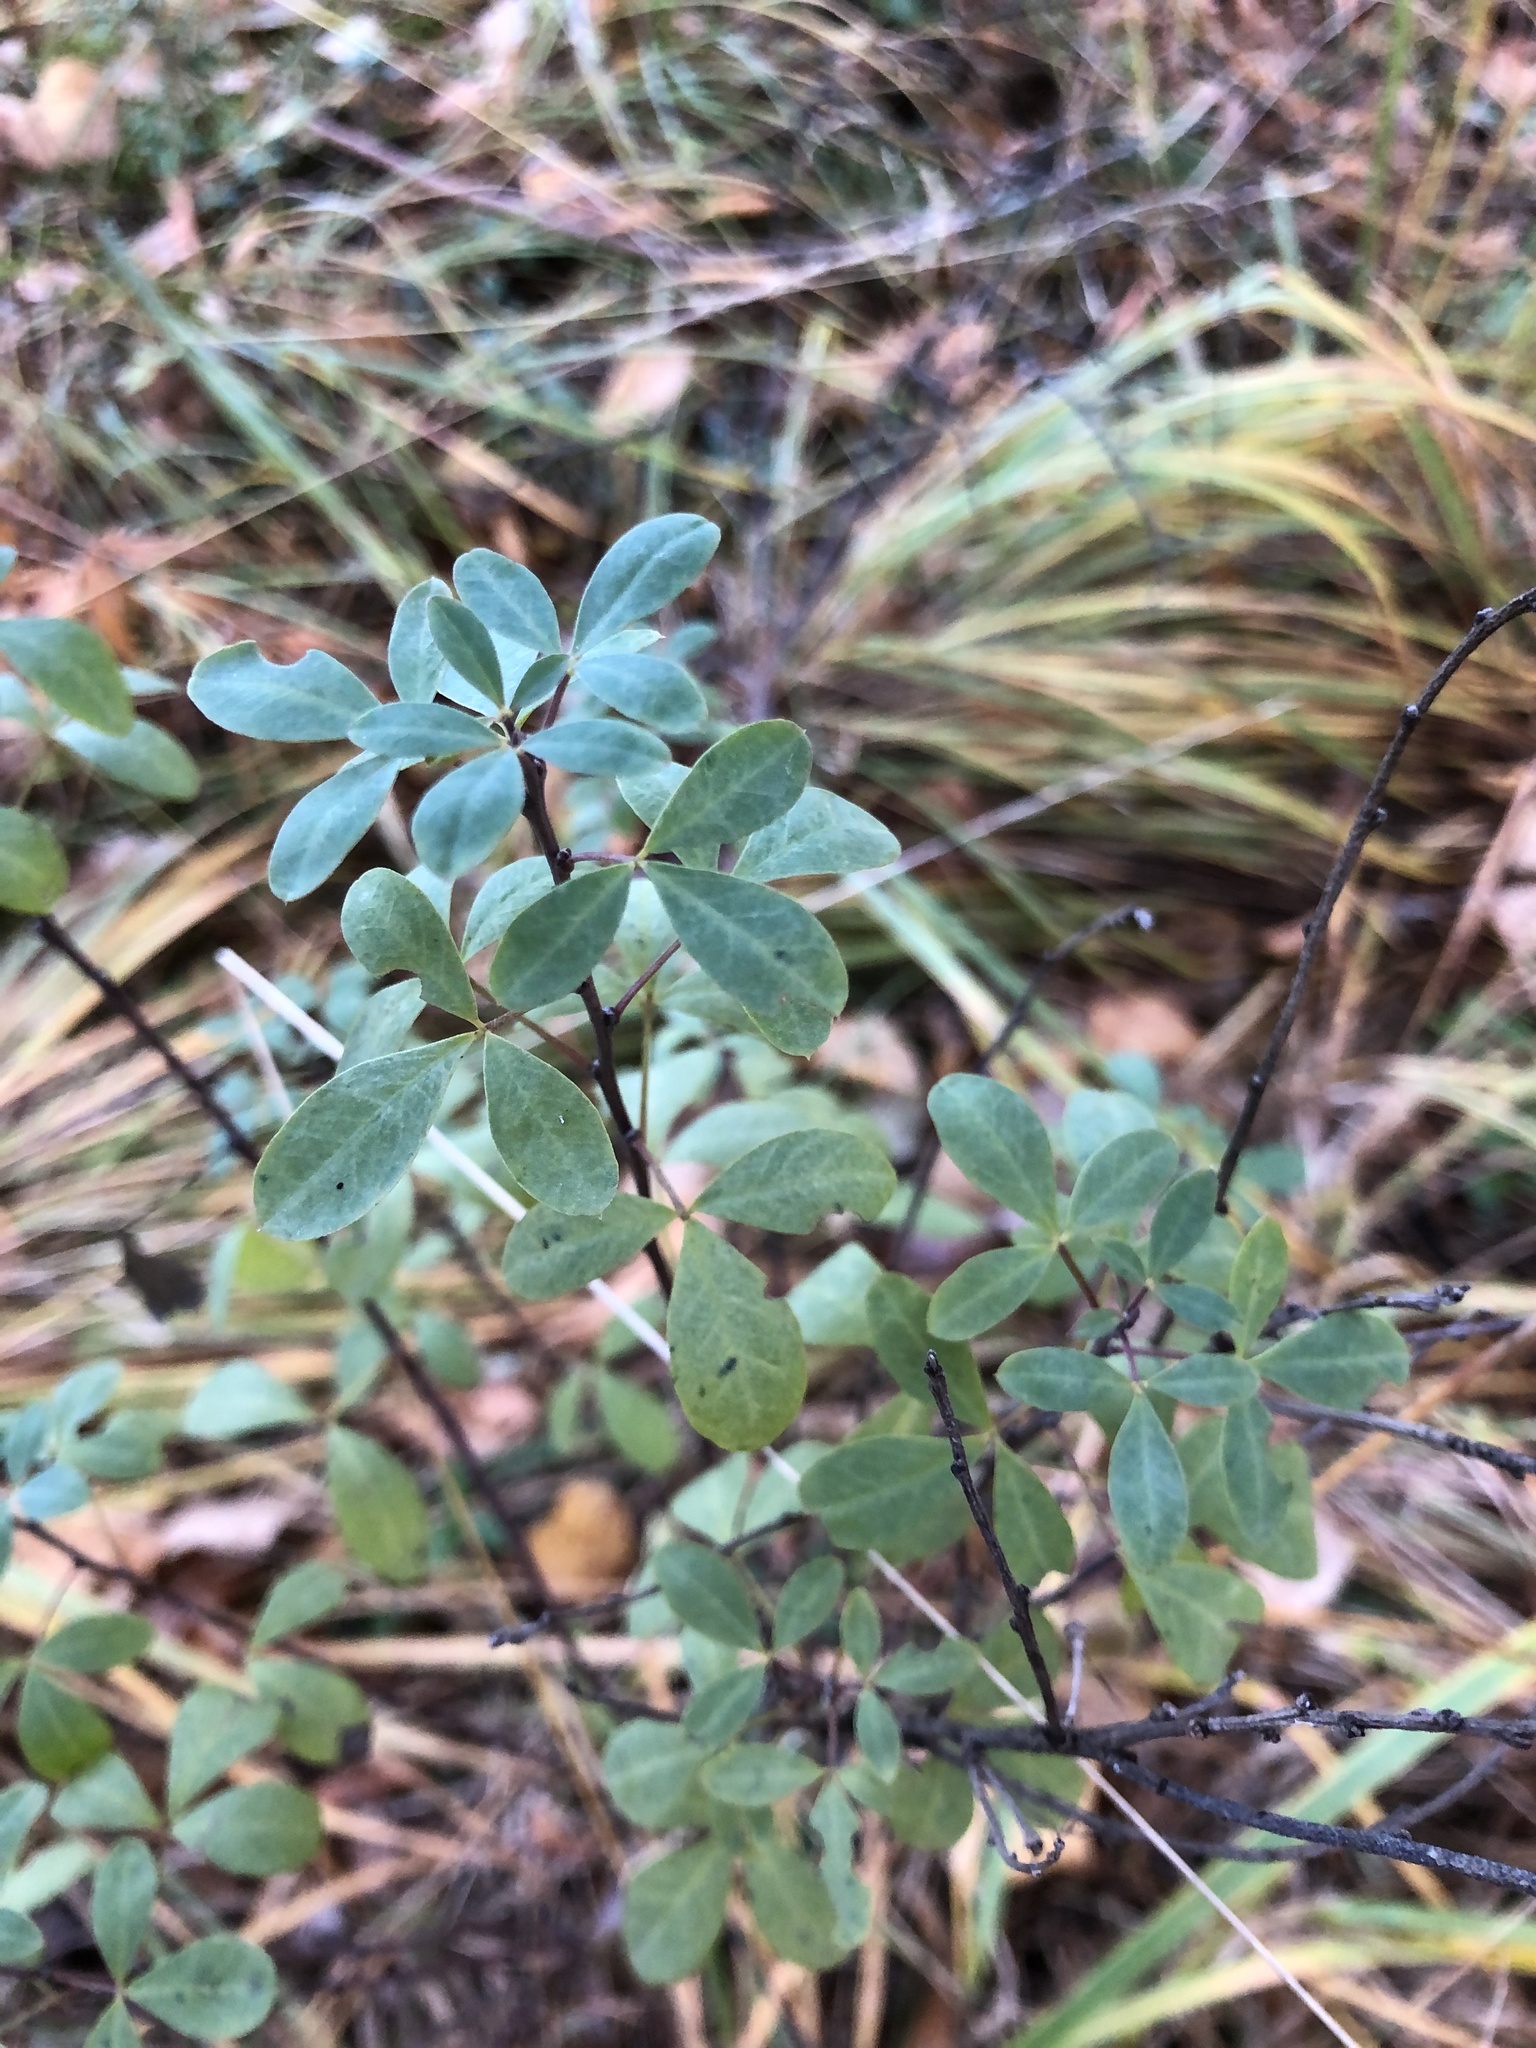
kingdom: Plantae
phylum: Tracheophyta
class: Magnoliopsida
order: Fabales
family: Fabaceae
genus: Chamaecytisus
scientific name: Chamaecytisus ruthenicus
